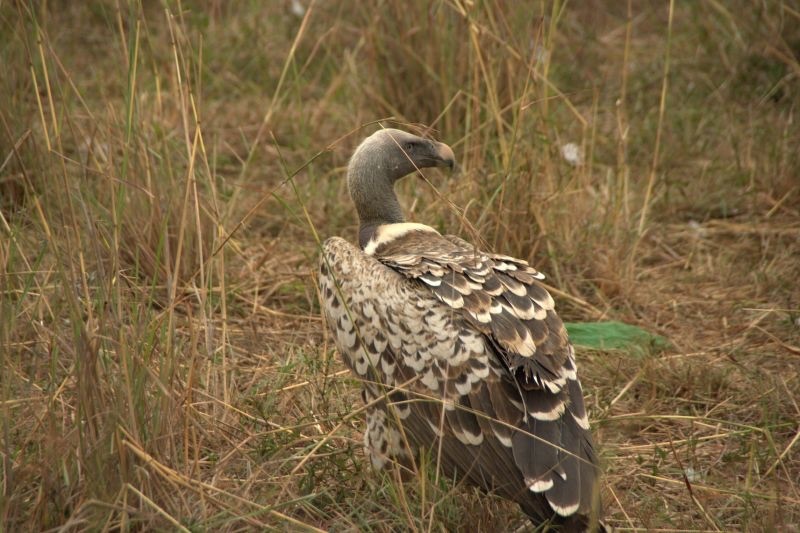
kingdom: Animalia
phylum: Chordata
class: Aves
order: Accipitriformes
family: Accipitridae
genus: Gyps
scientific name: Gyps rueppellii
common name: Rüppell's vulture
